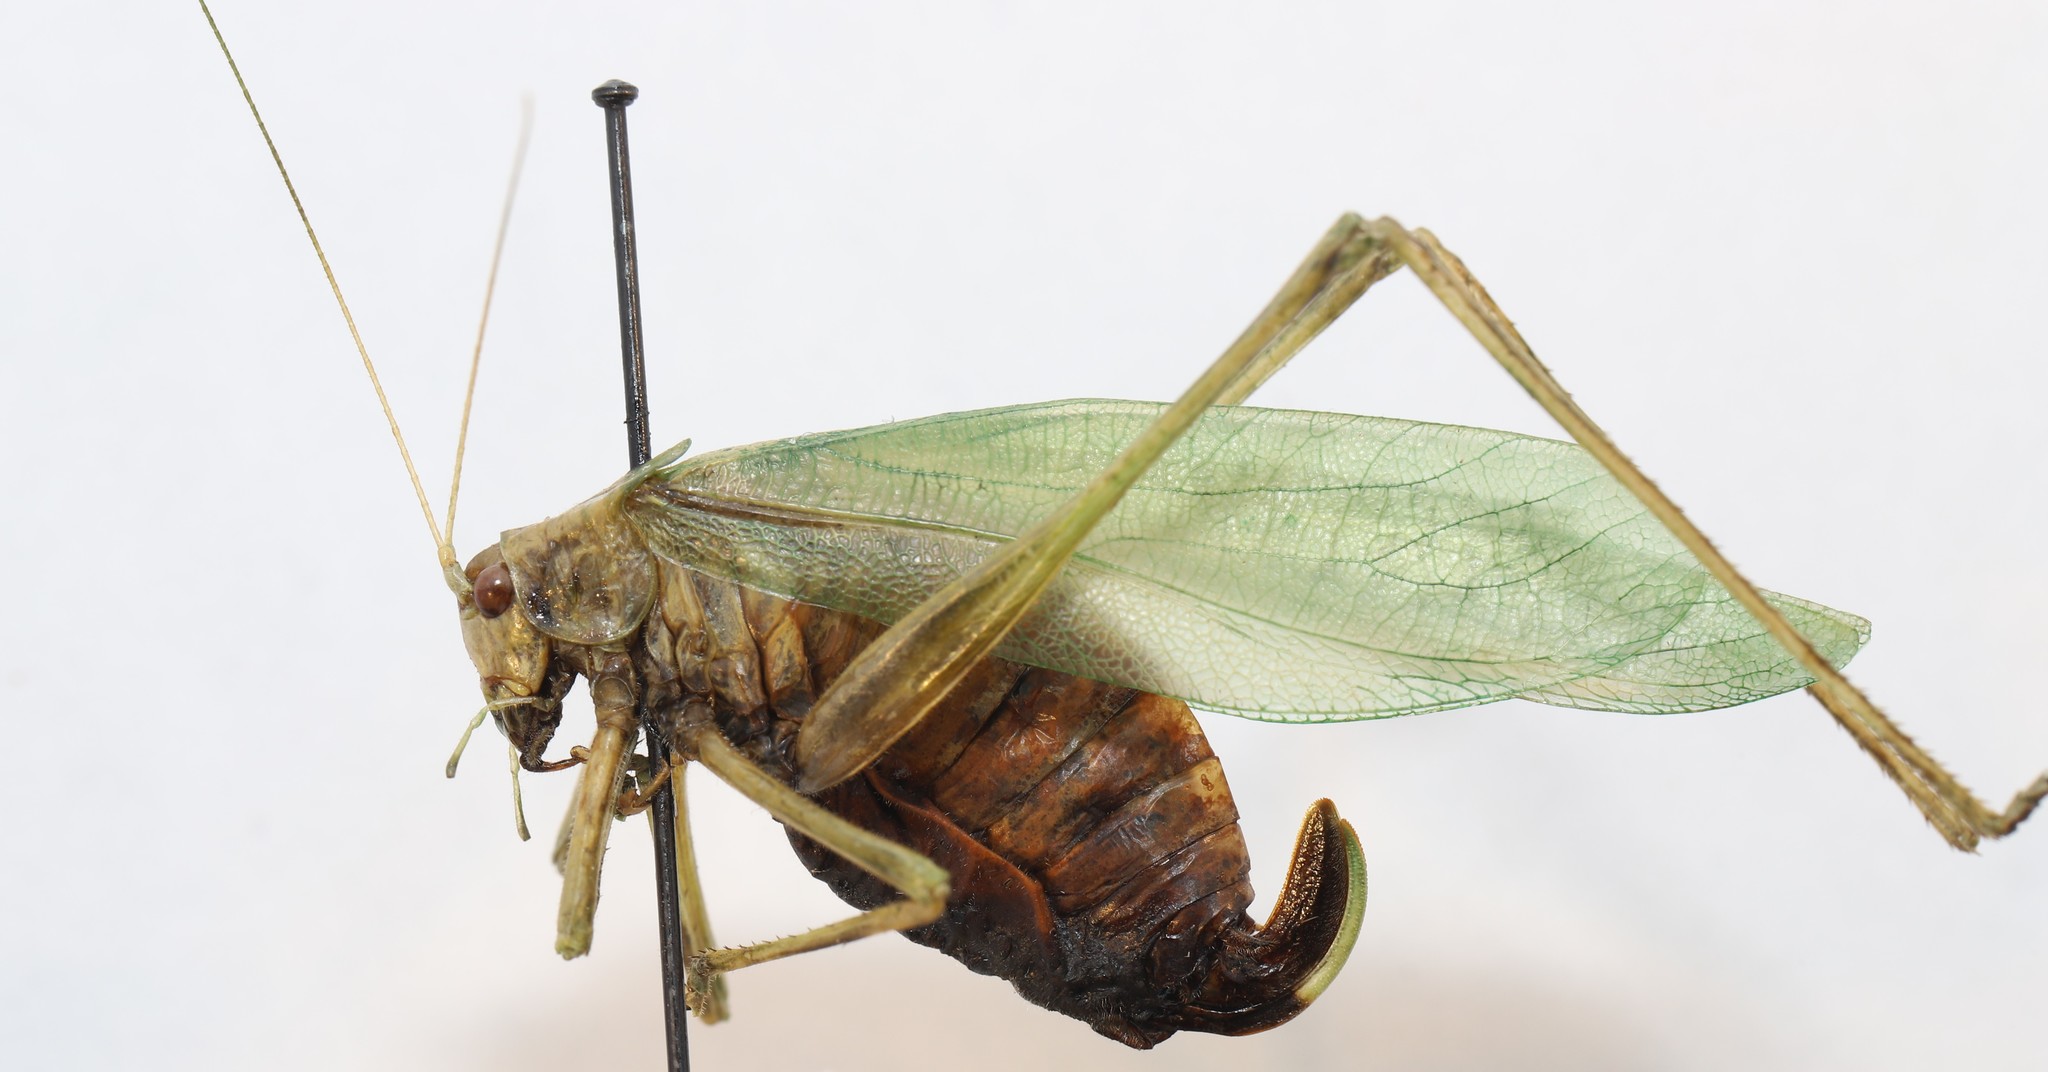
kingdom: Animalia
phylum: Arthropoda
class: Insecta
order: Orthoptera
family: Tettigoniidae
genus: Scudderia
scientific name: Scudderia pistillata
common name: Broad-winged bush-katydid
